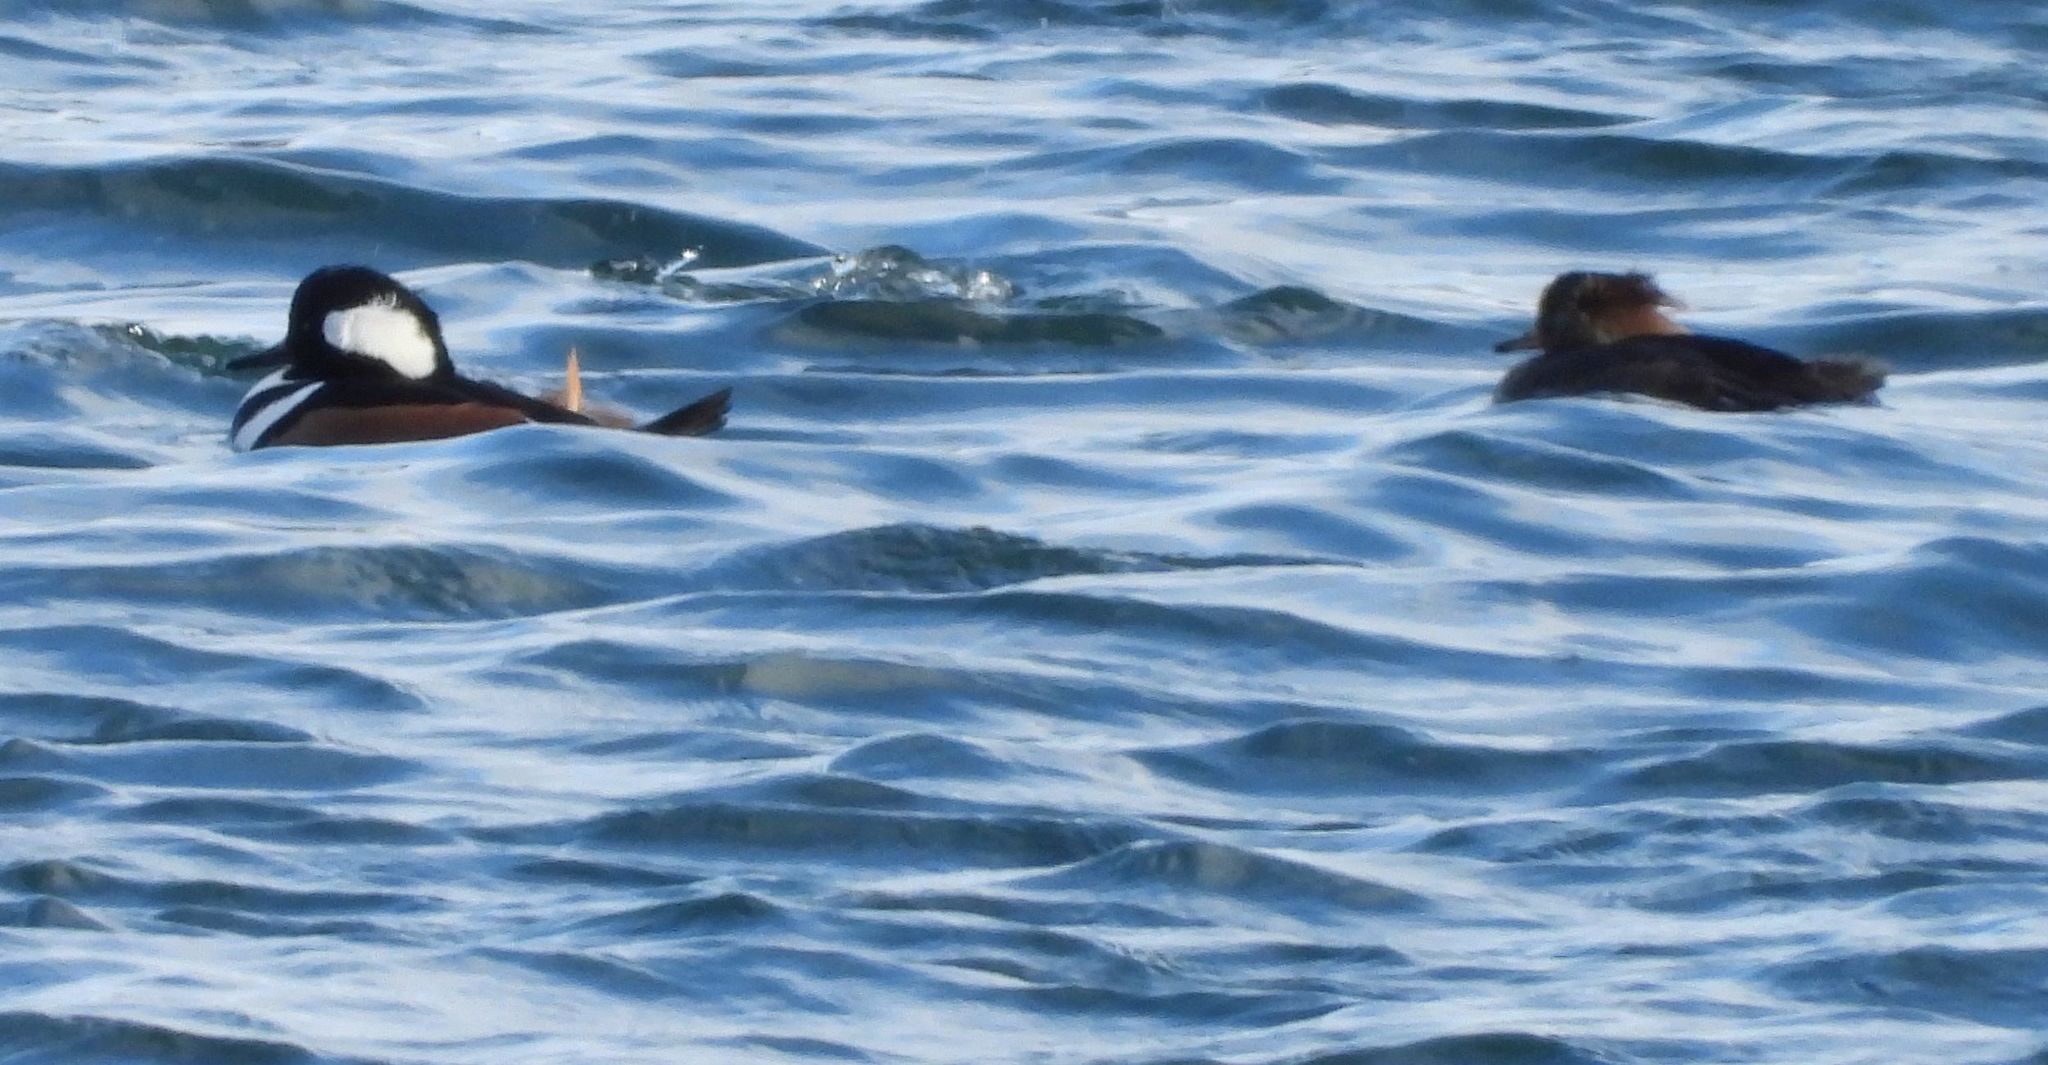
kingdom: Animalia
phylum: Chordata
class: Aves
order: Anseriformes
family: Anatidae
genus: Lophodytes
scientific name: Lophodytes cucullatus
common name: Hooded merganser
